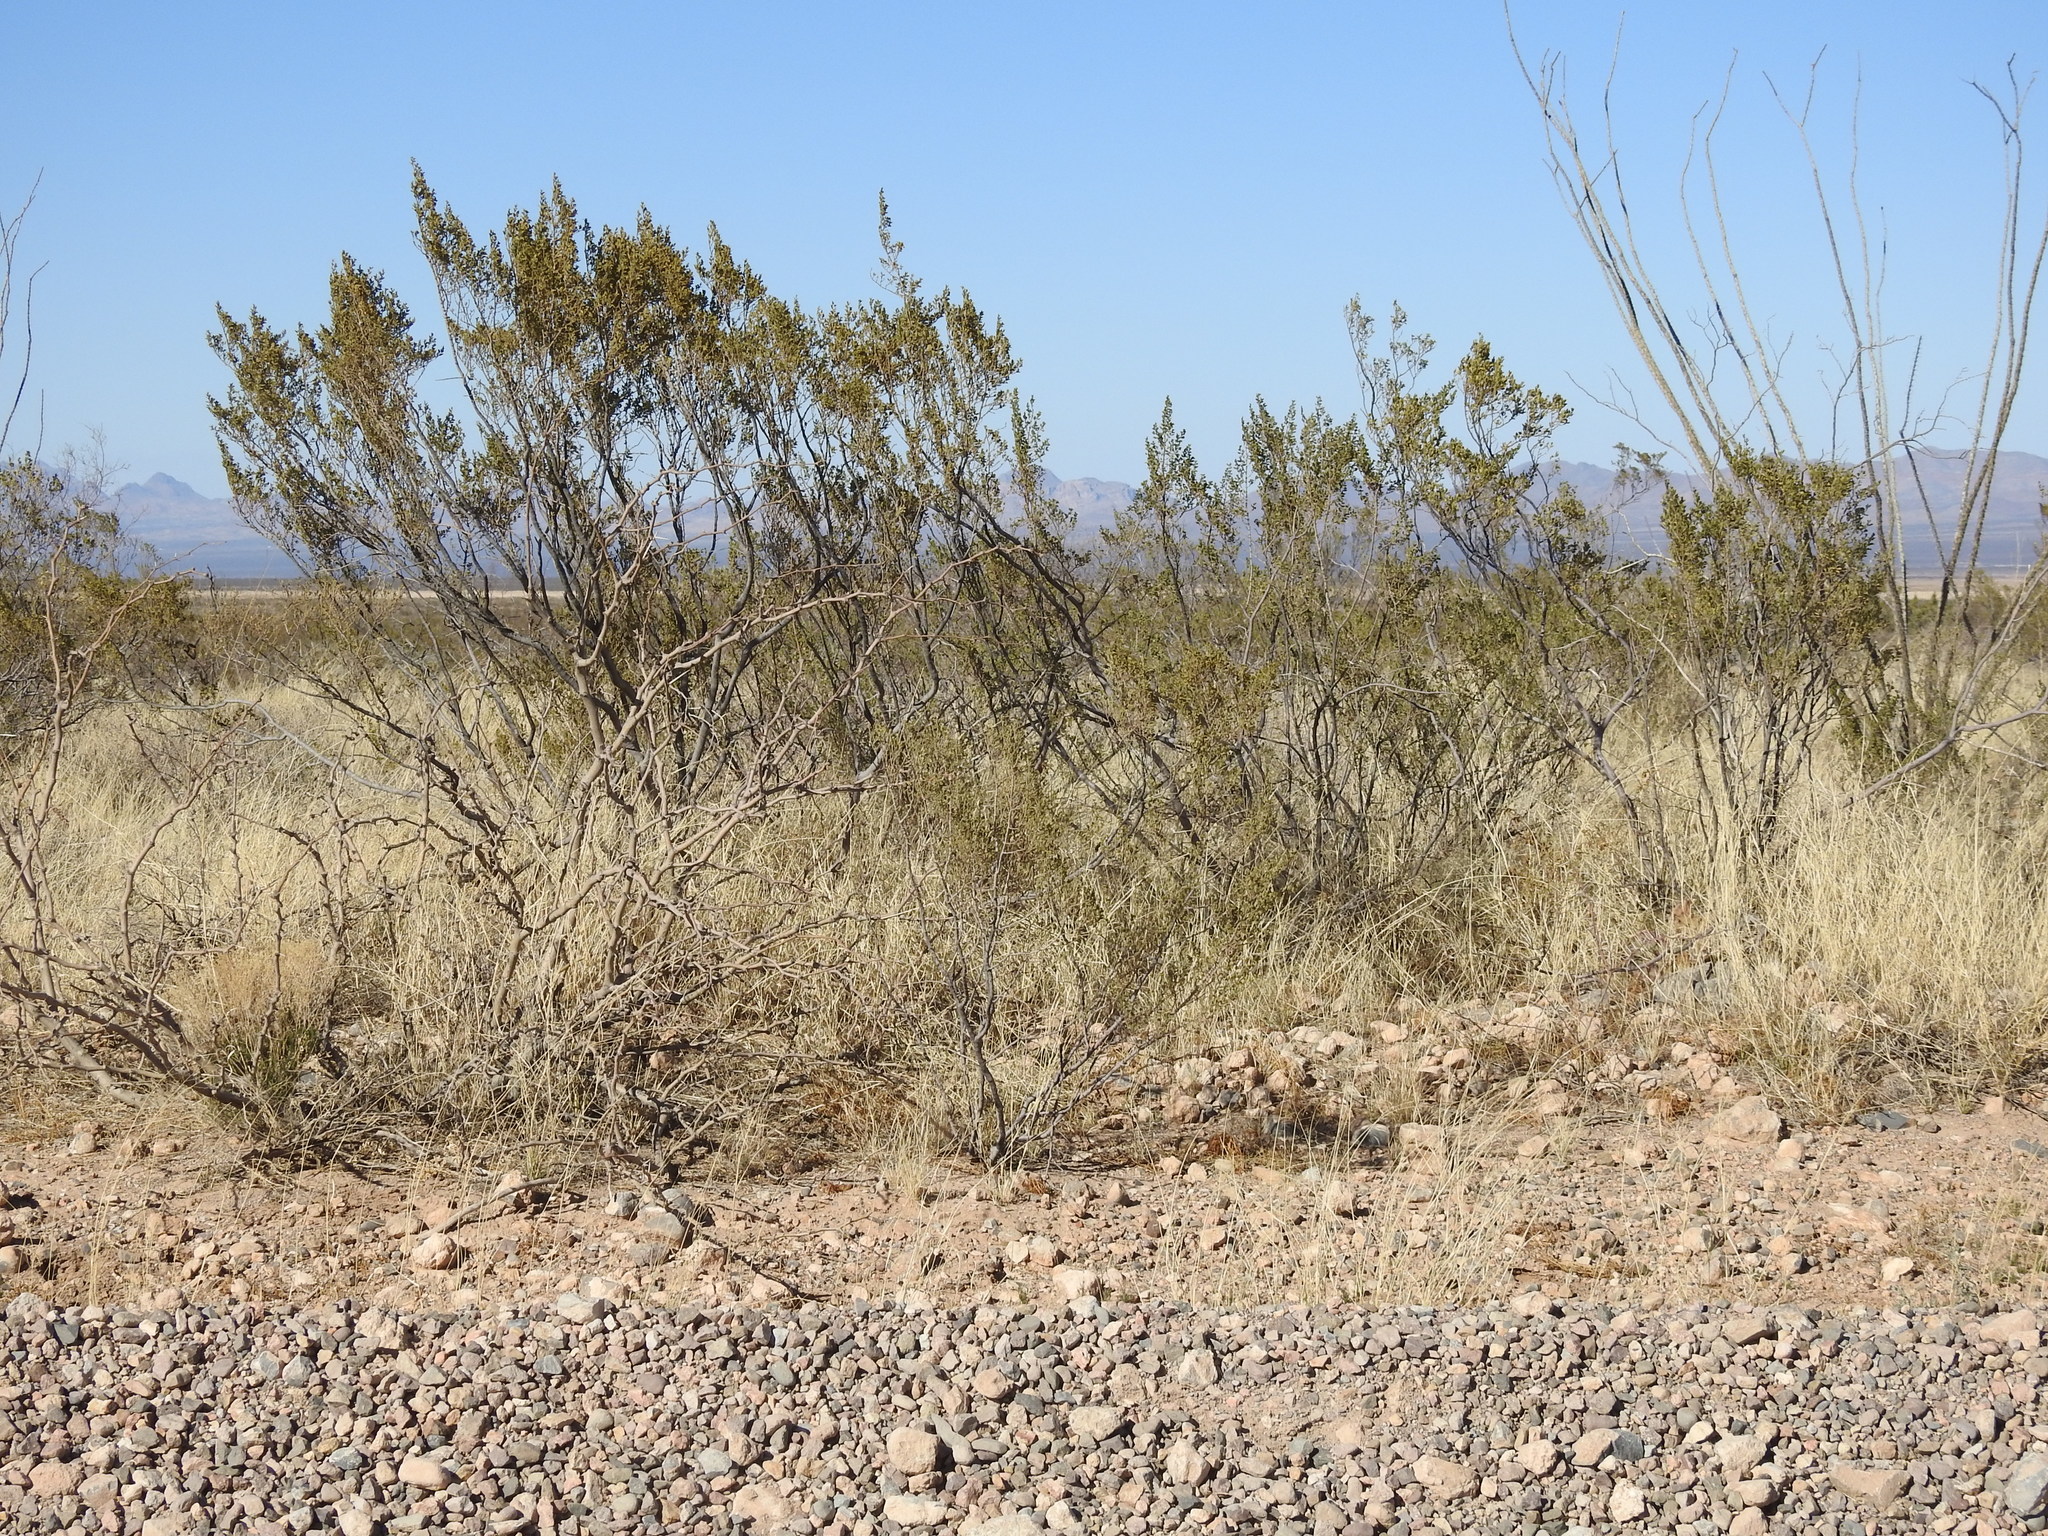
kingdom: Plantae
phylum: Tracheophyta
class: Magnoliopsida
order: Zygophyllales
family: Zygophyllaceae
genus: Larrea
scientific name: Larrea tridentata
